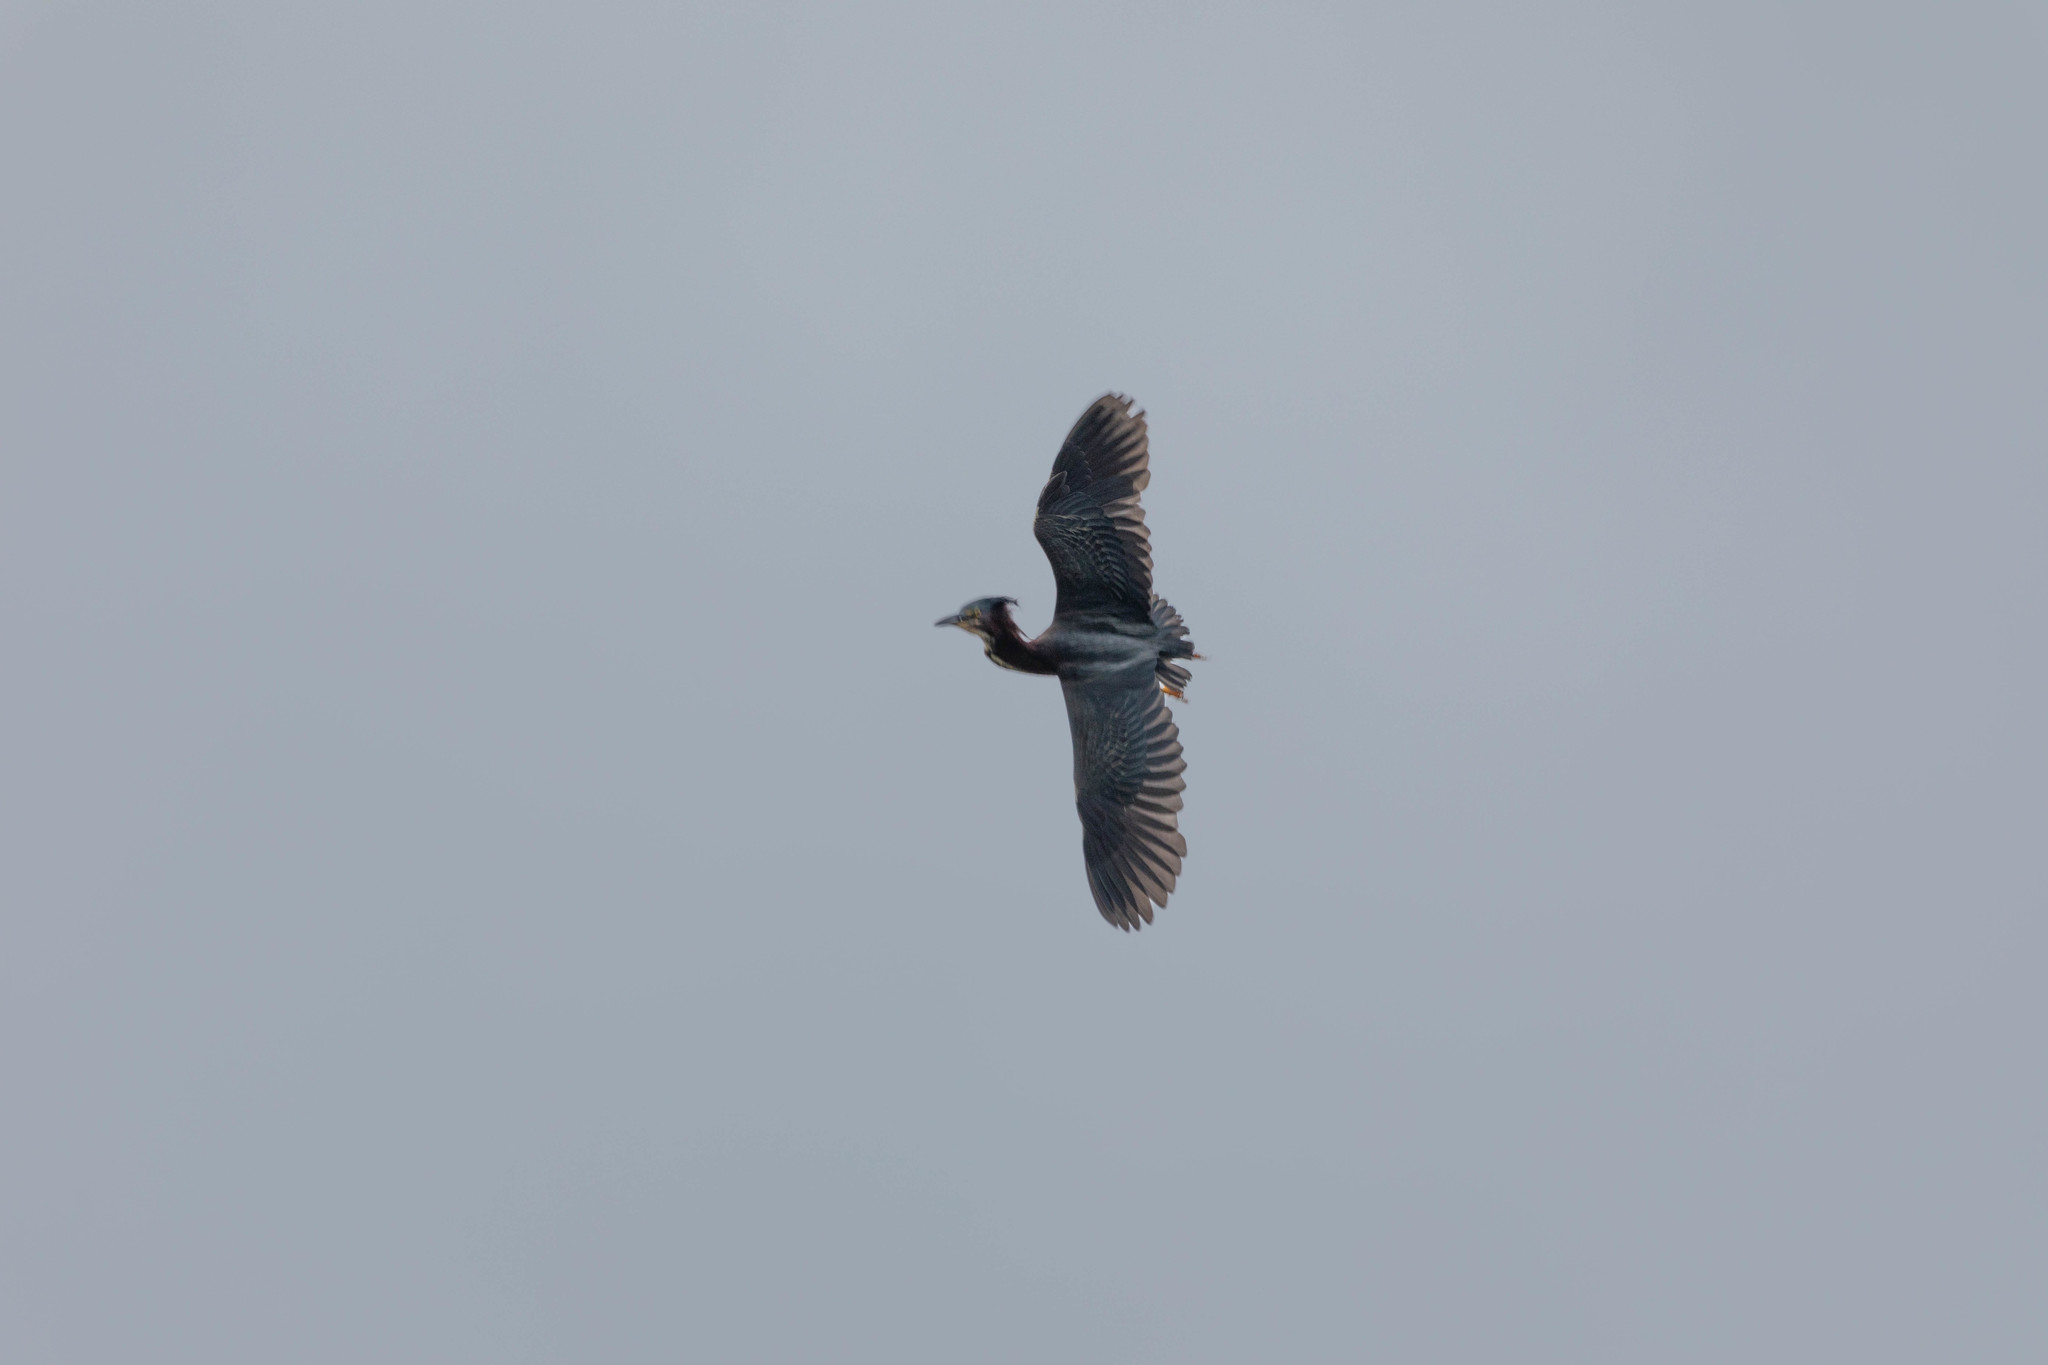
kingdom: Animalia
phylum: Chordata
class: Aves
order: Pelecaniformes
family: Ardeidae
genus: Butorides
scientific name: Butorides virescens
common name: Green heron
